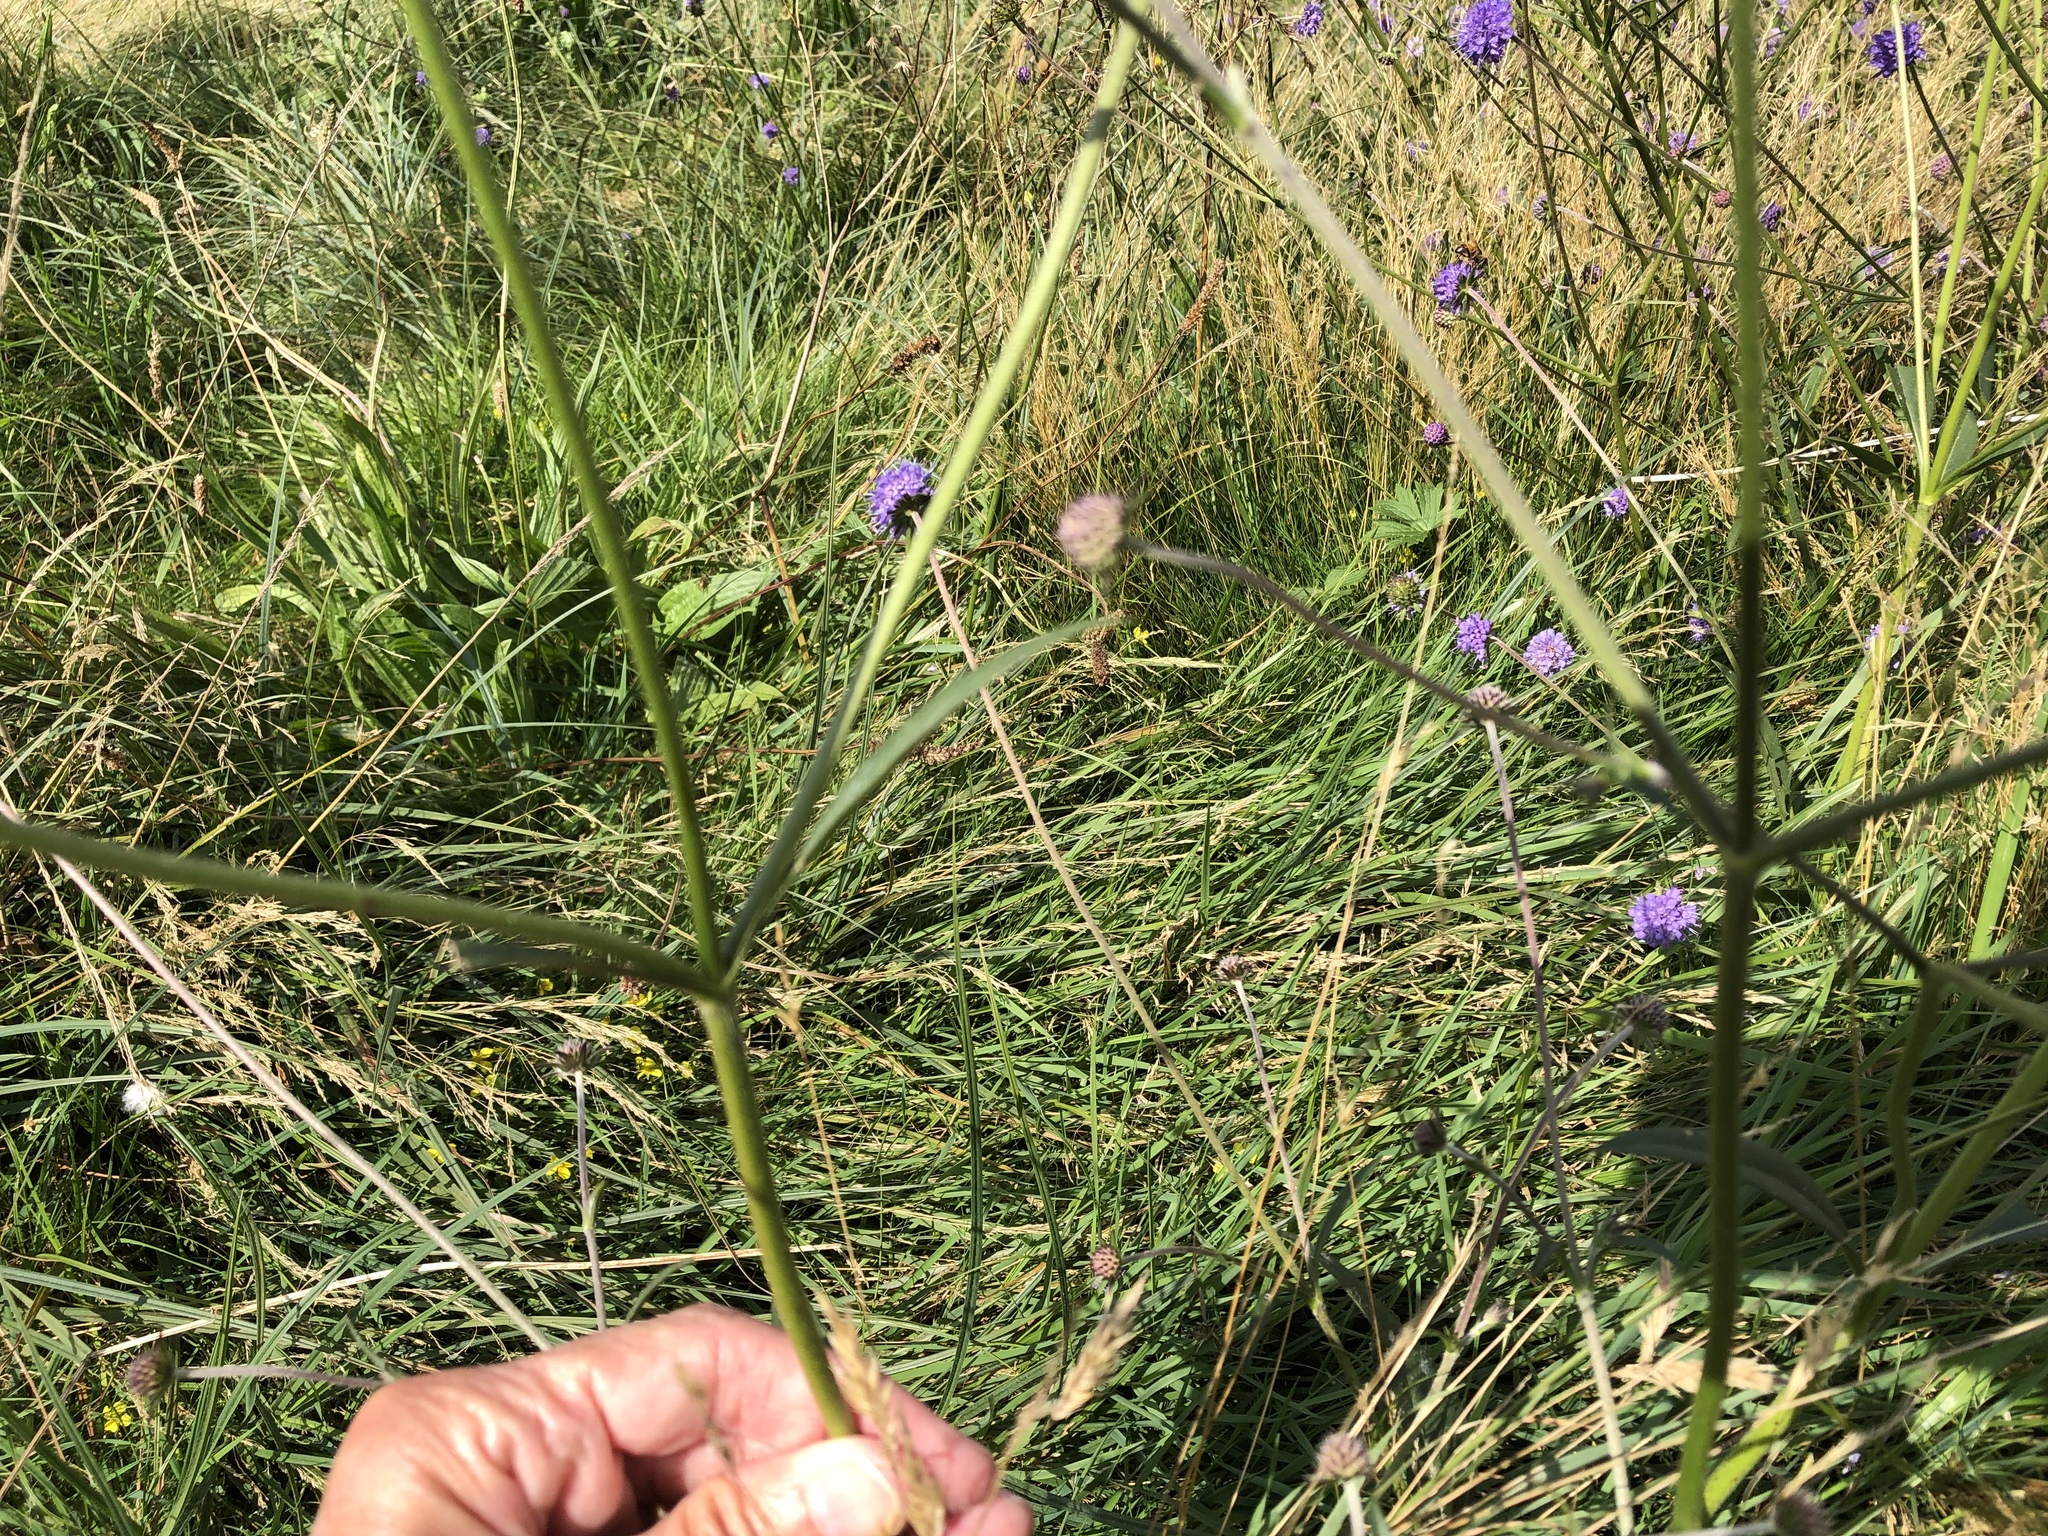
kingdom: Plantae
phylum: Tracheophyta
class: Magnoliopsida
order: Dipsacales
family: Caprifoliaceae
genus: Succisa
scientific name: Succisa pratensis
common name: Devil's-bit
